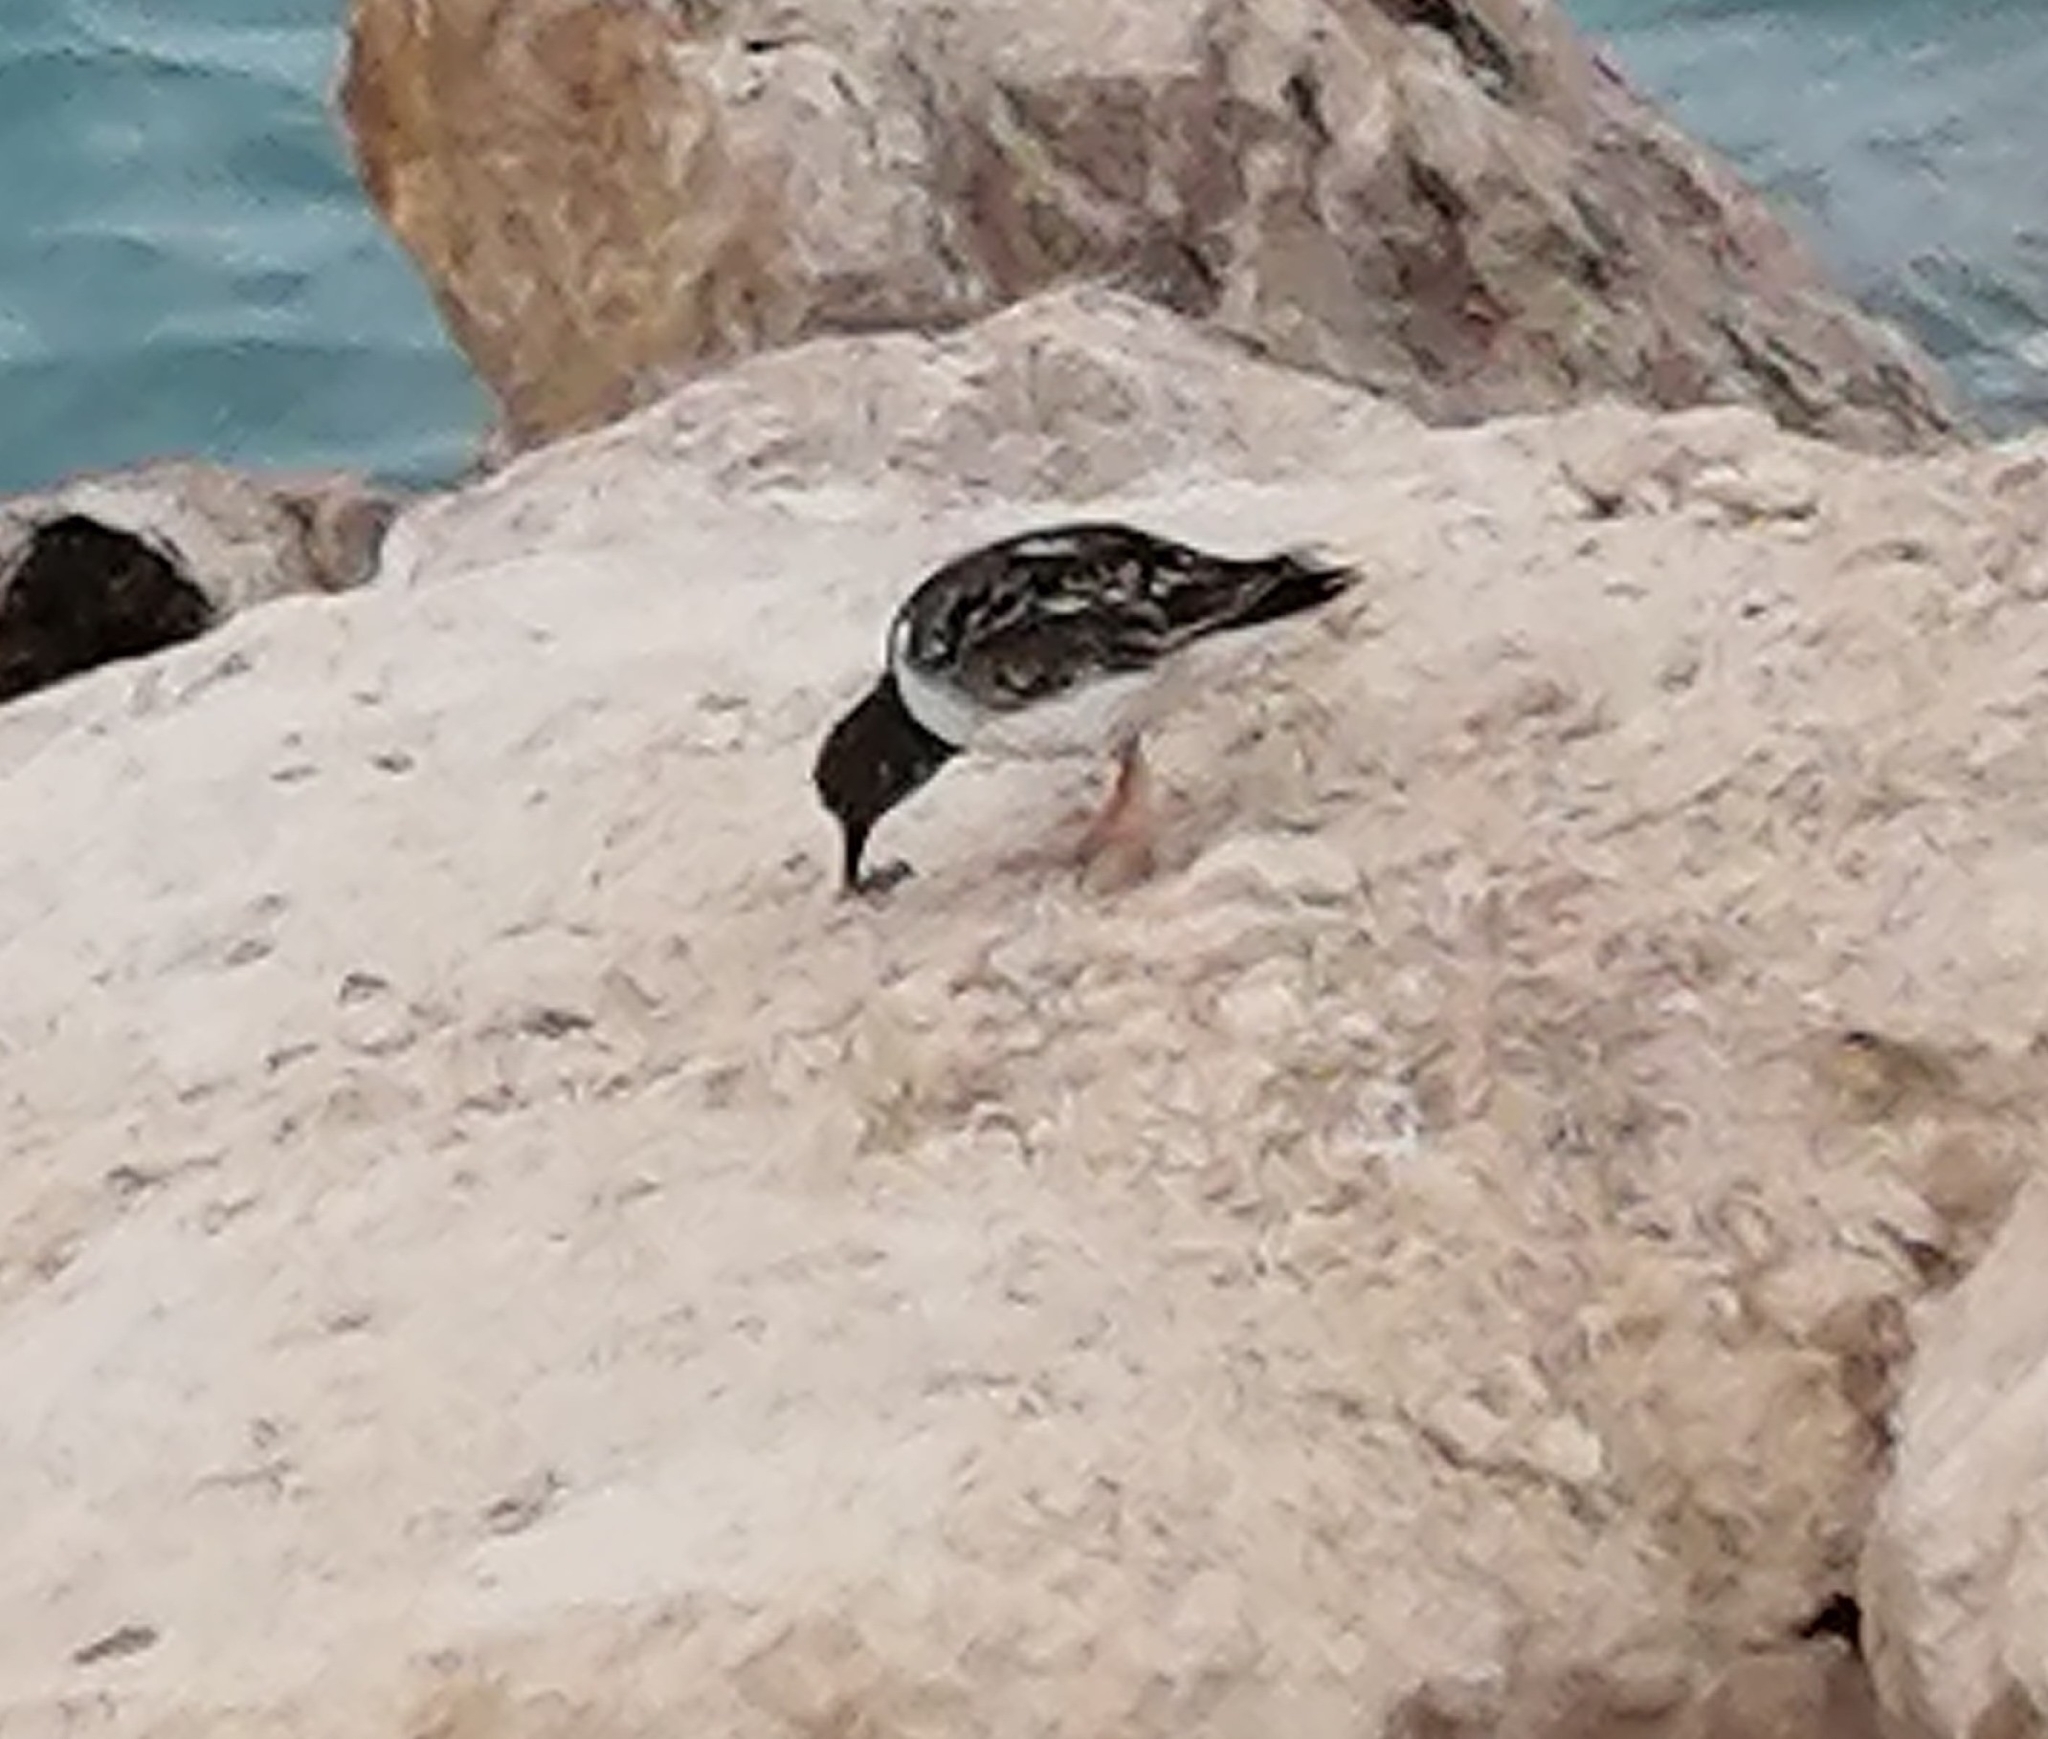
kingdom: Animalia
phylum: Chordata
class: Aves
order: Charadriiformes
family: Scolopacidae
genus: Arenaria
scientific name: Arenaria interpres
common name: Ruddy turnstone
